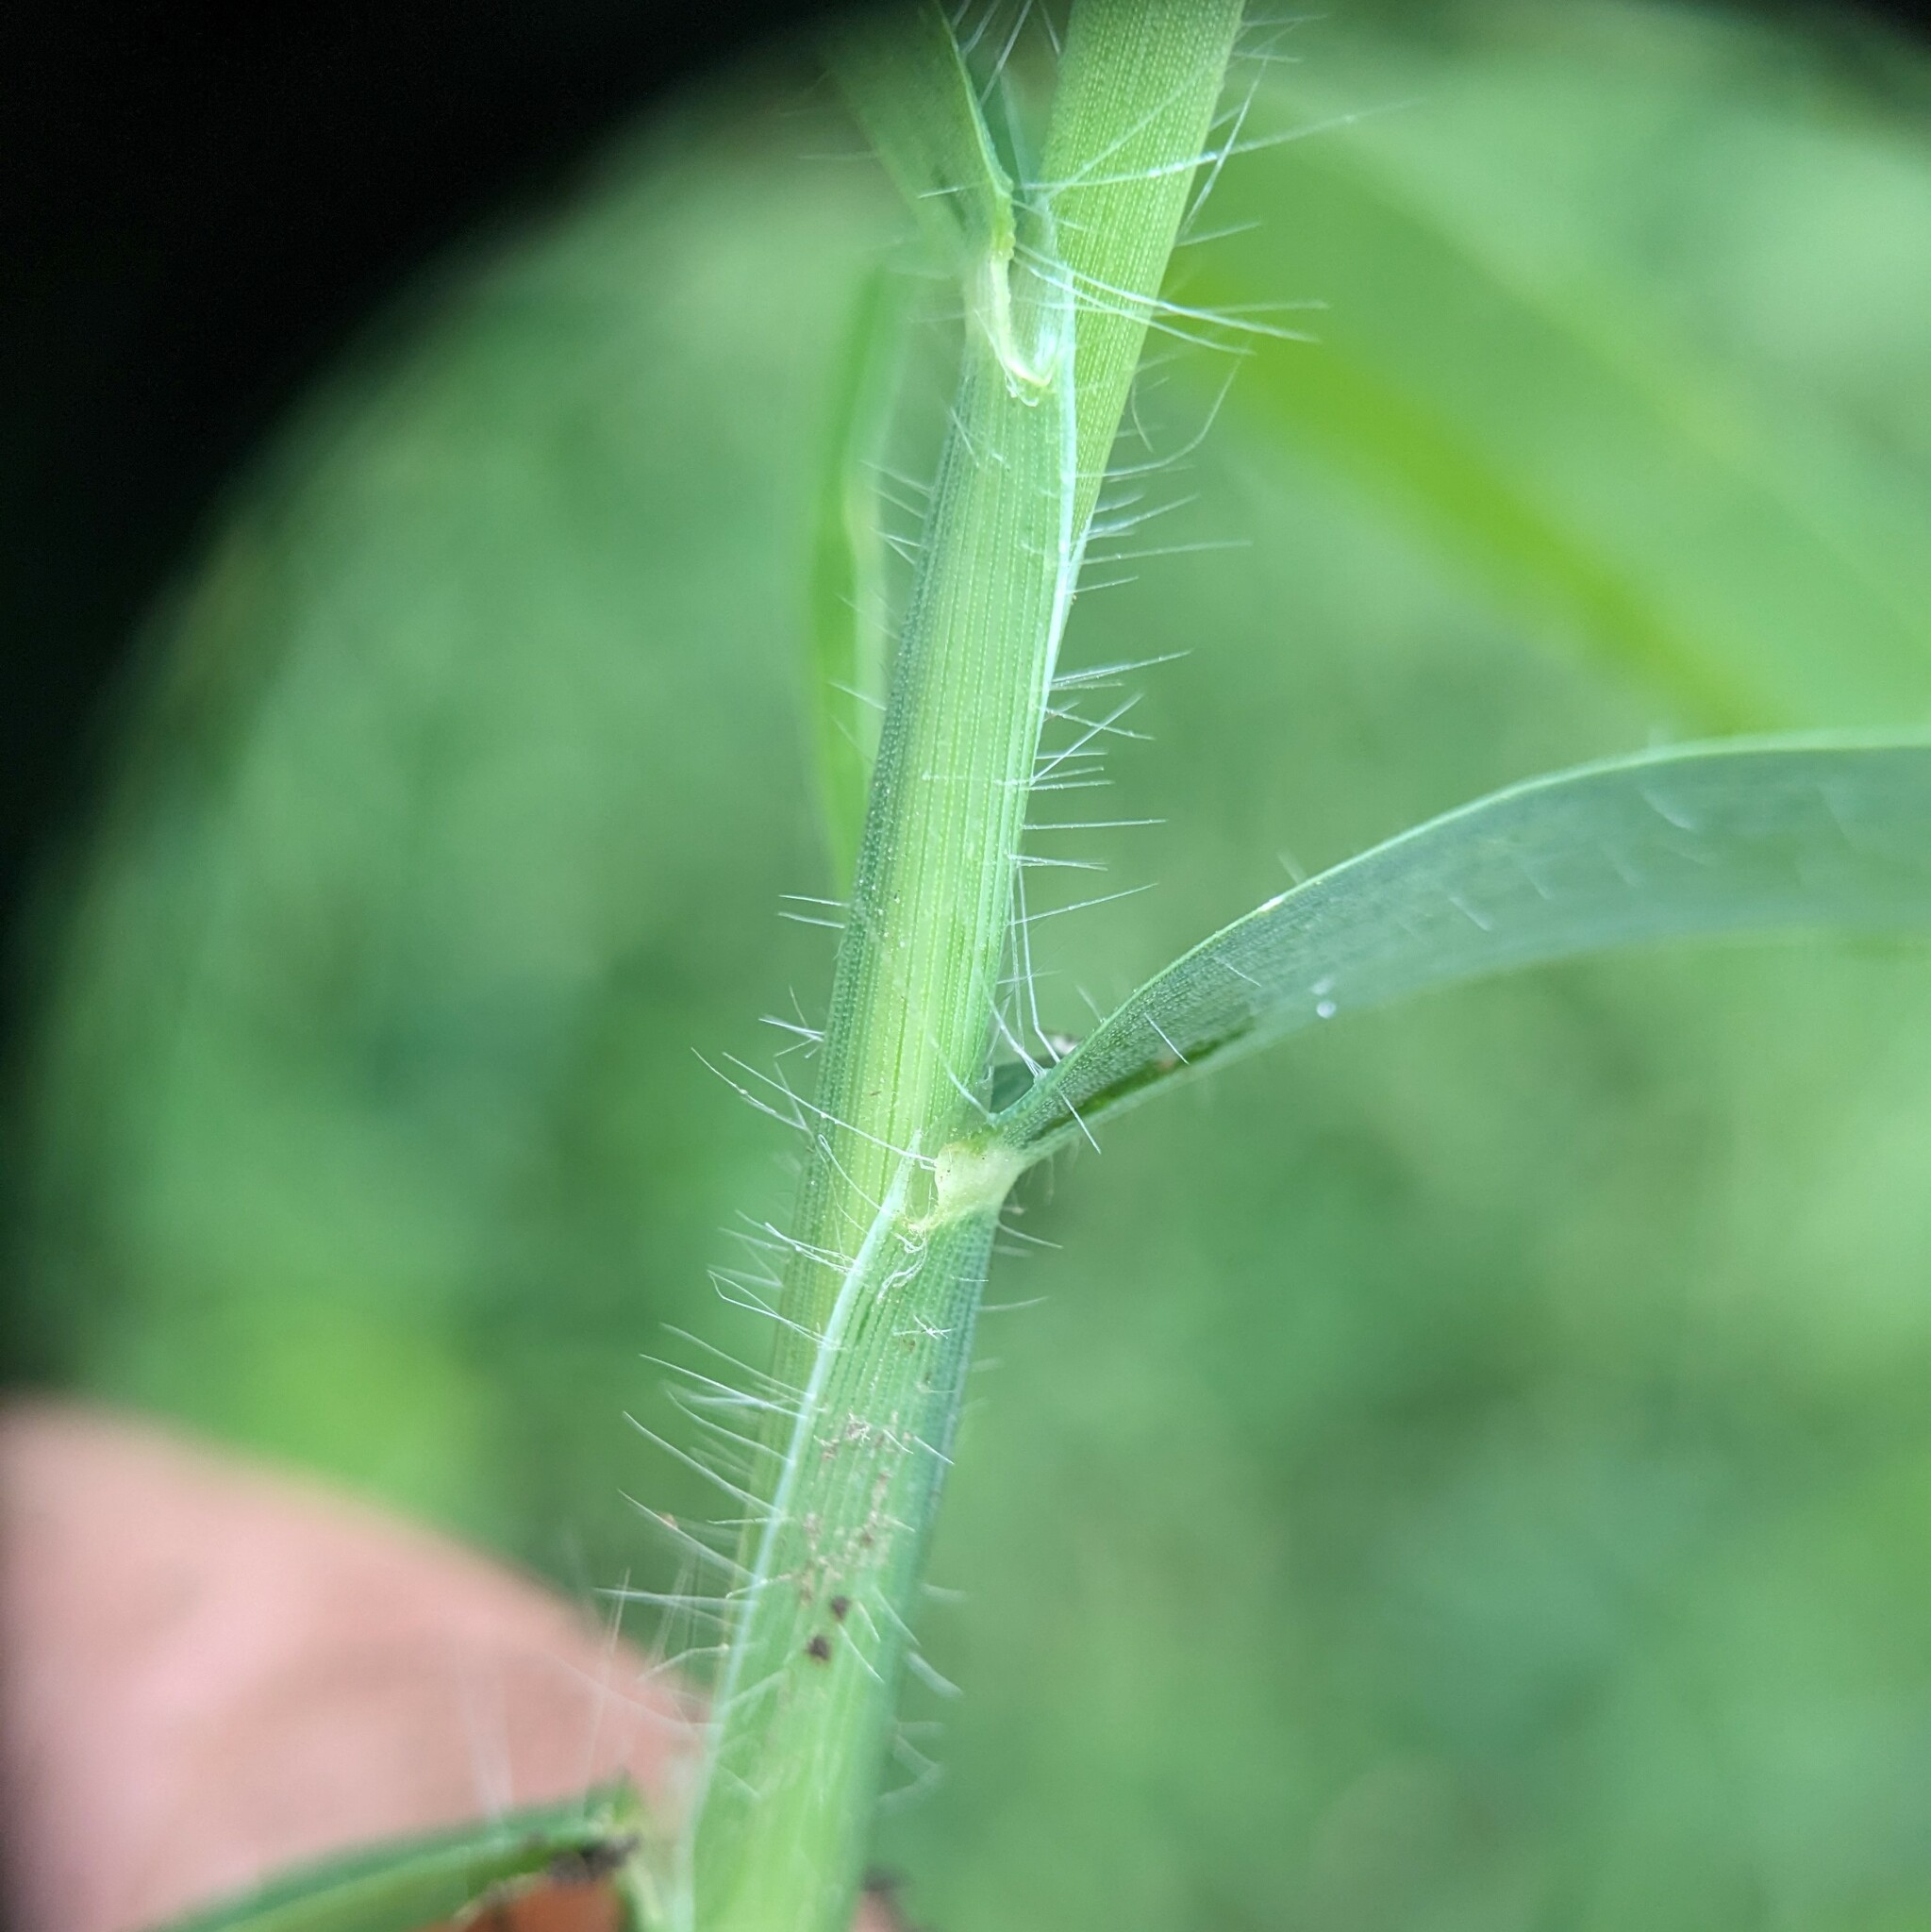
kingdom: Plantae
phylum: Tracheophyta
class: Liliopsida
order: Poales
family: Poaceae
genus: Digitaria
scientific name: Digitaria sanguinalis
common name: Hairy crabgrass
